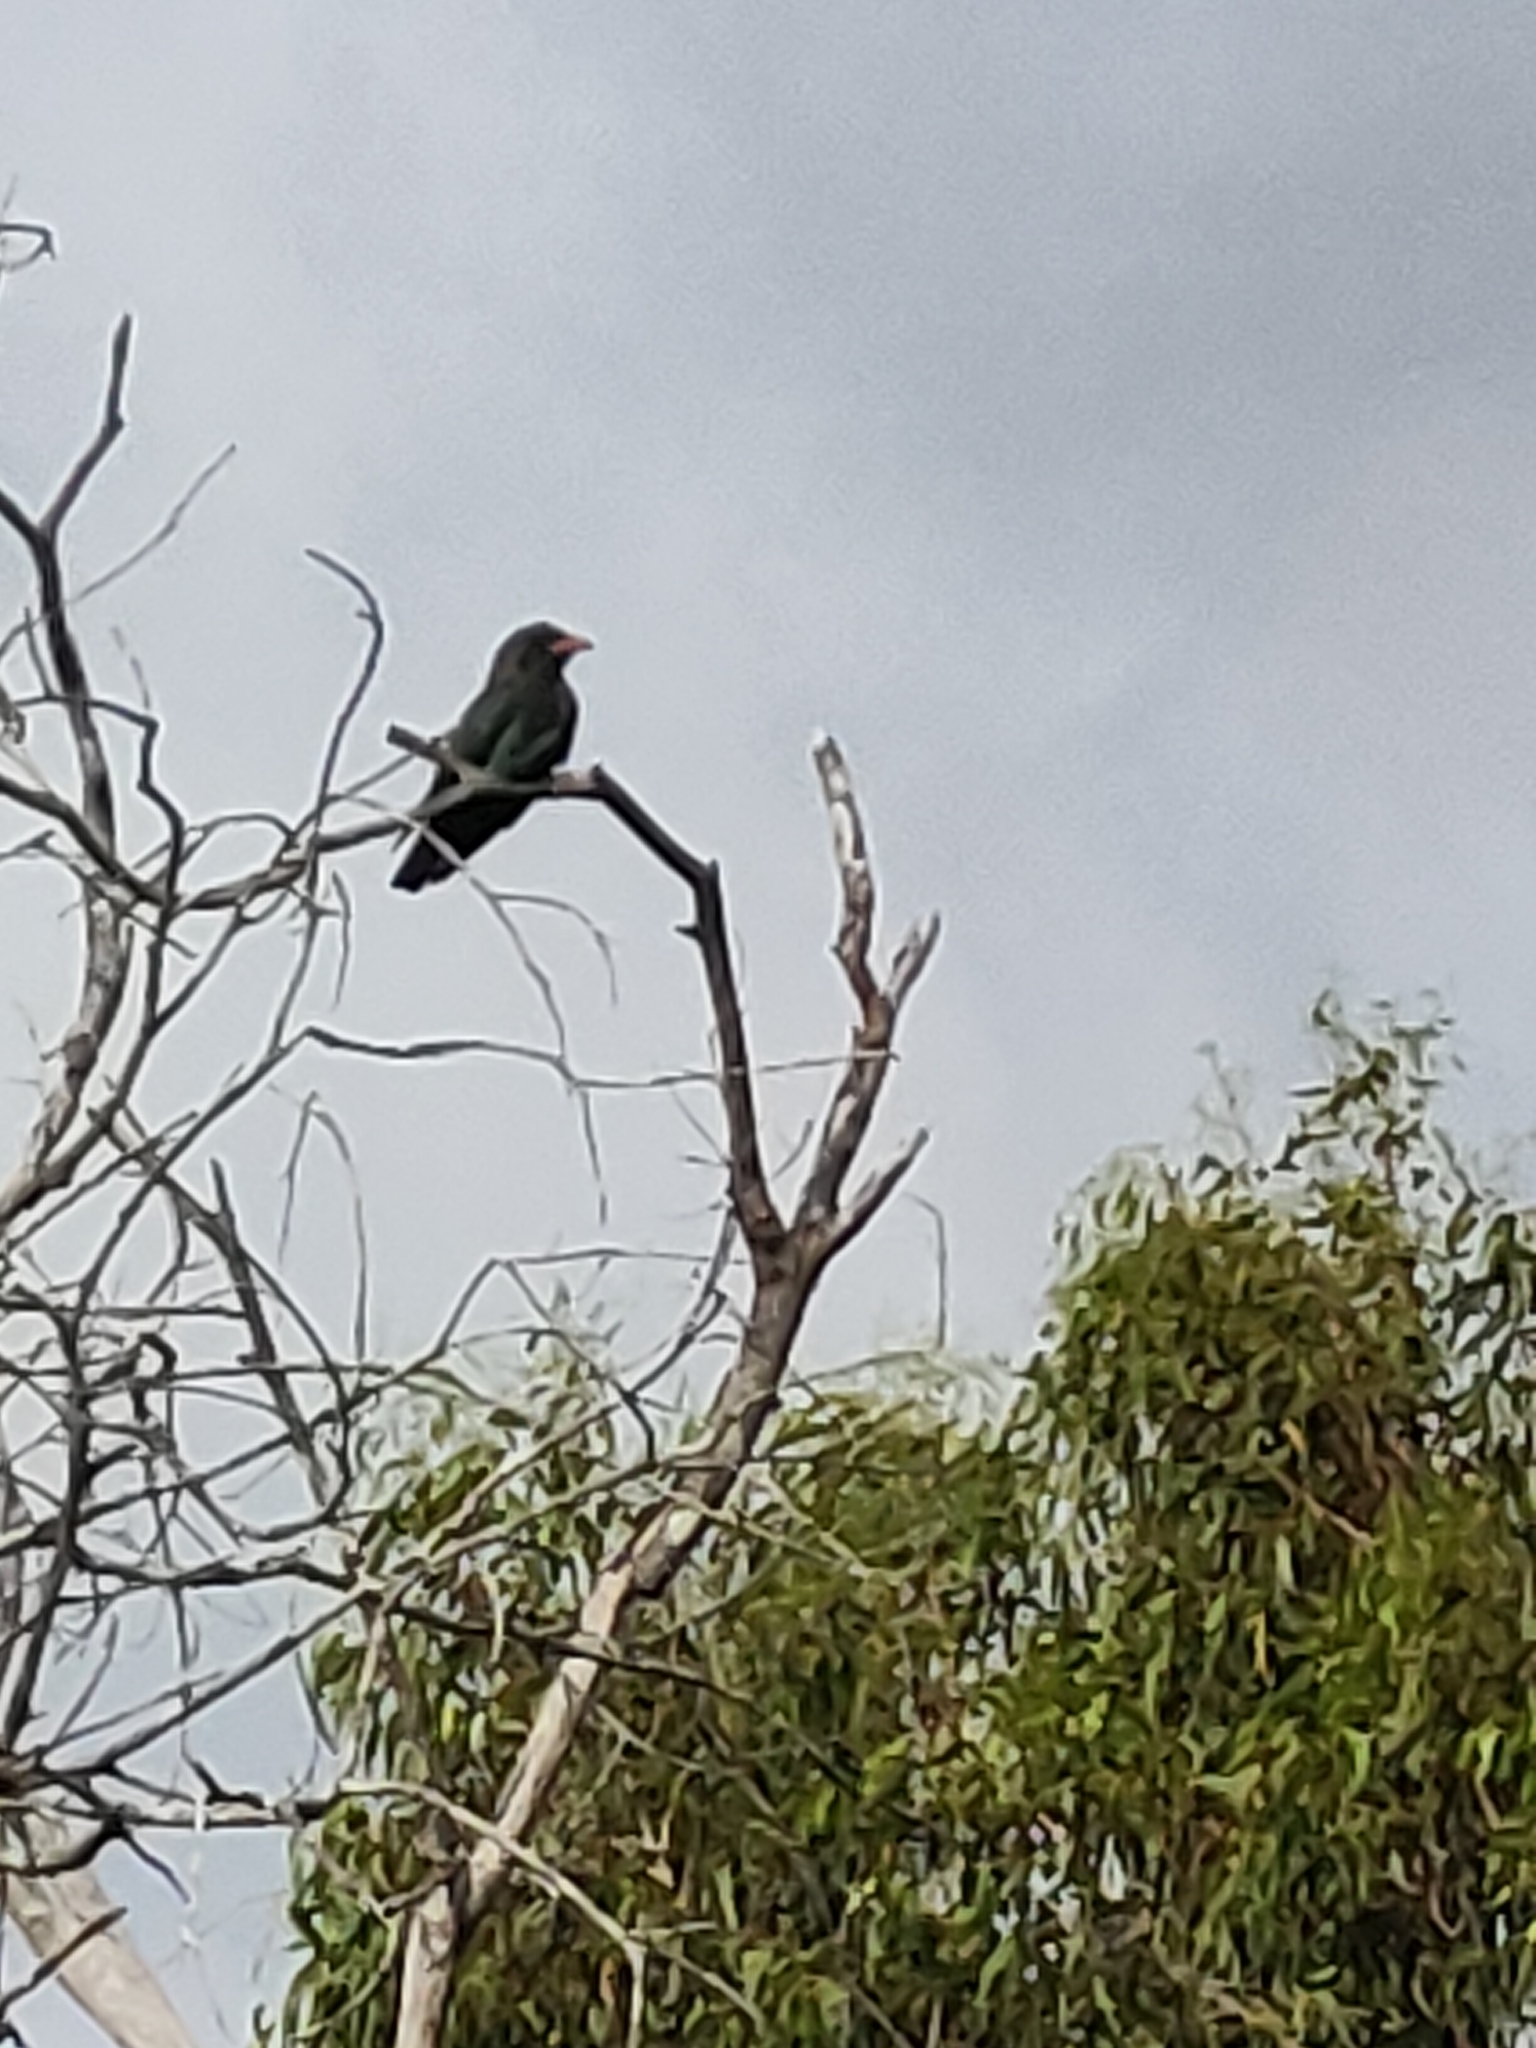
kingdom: Animalia
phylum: Chordata
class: Aves
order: Coraciiformes
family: Coraciidae
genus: Eurystomus
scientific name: Eurystomus orientalis
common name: Oriental dollarbird
